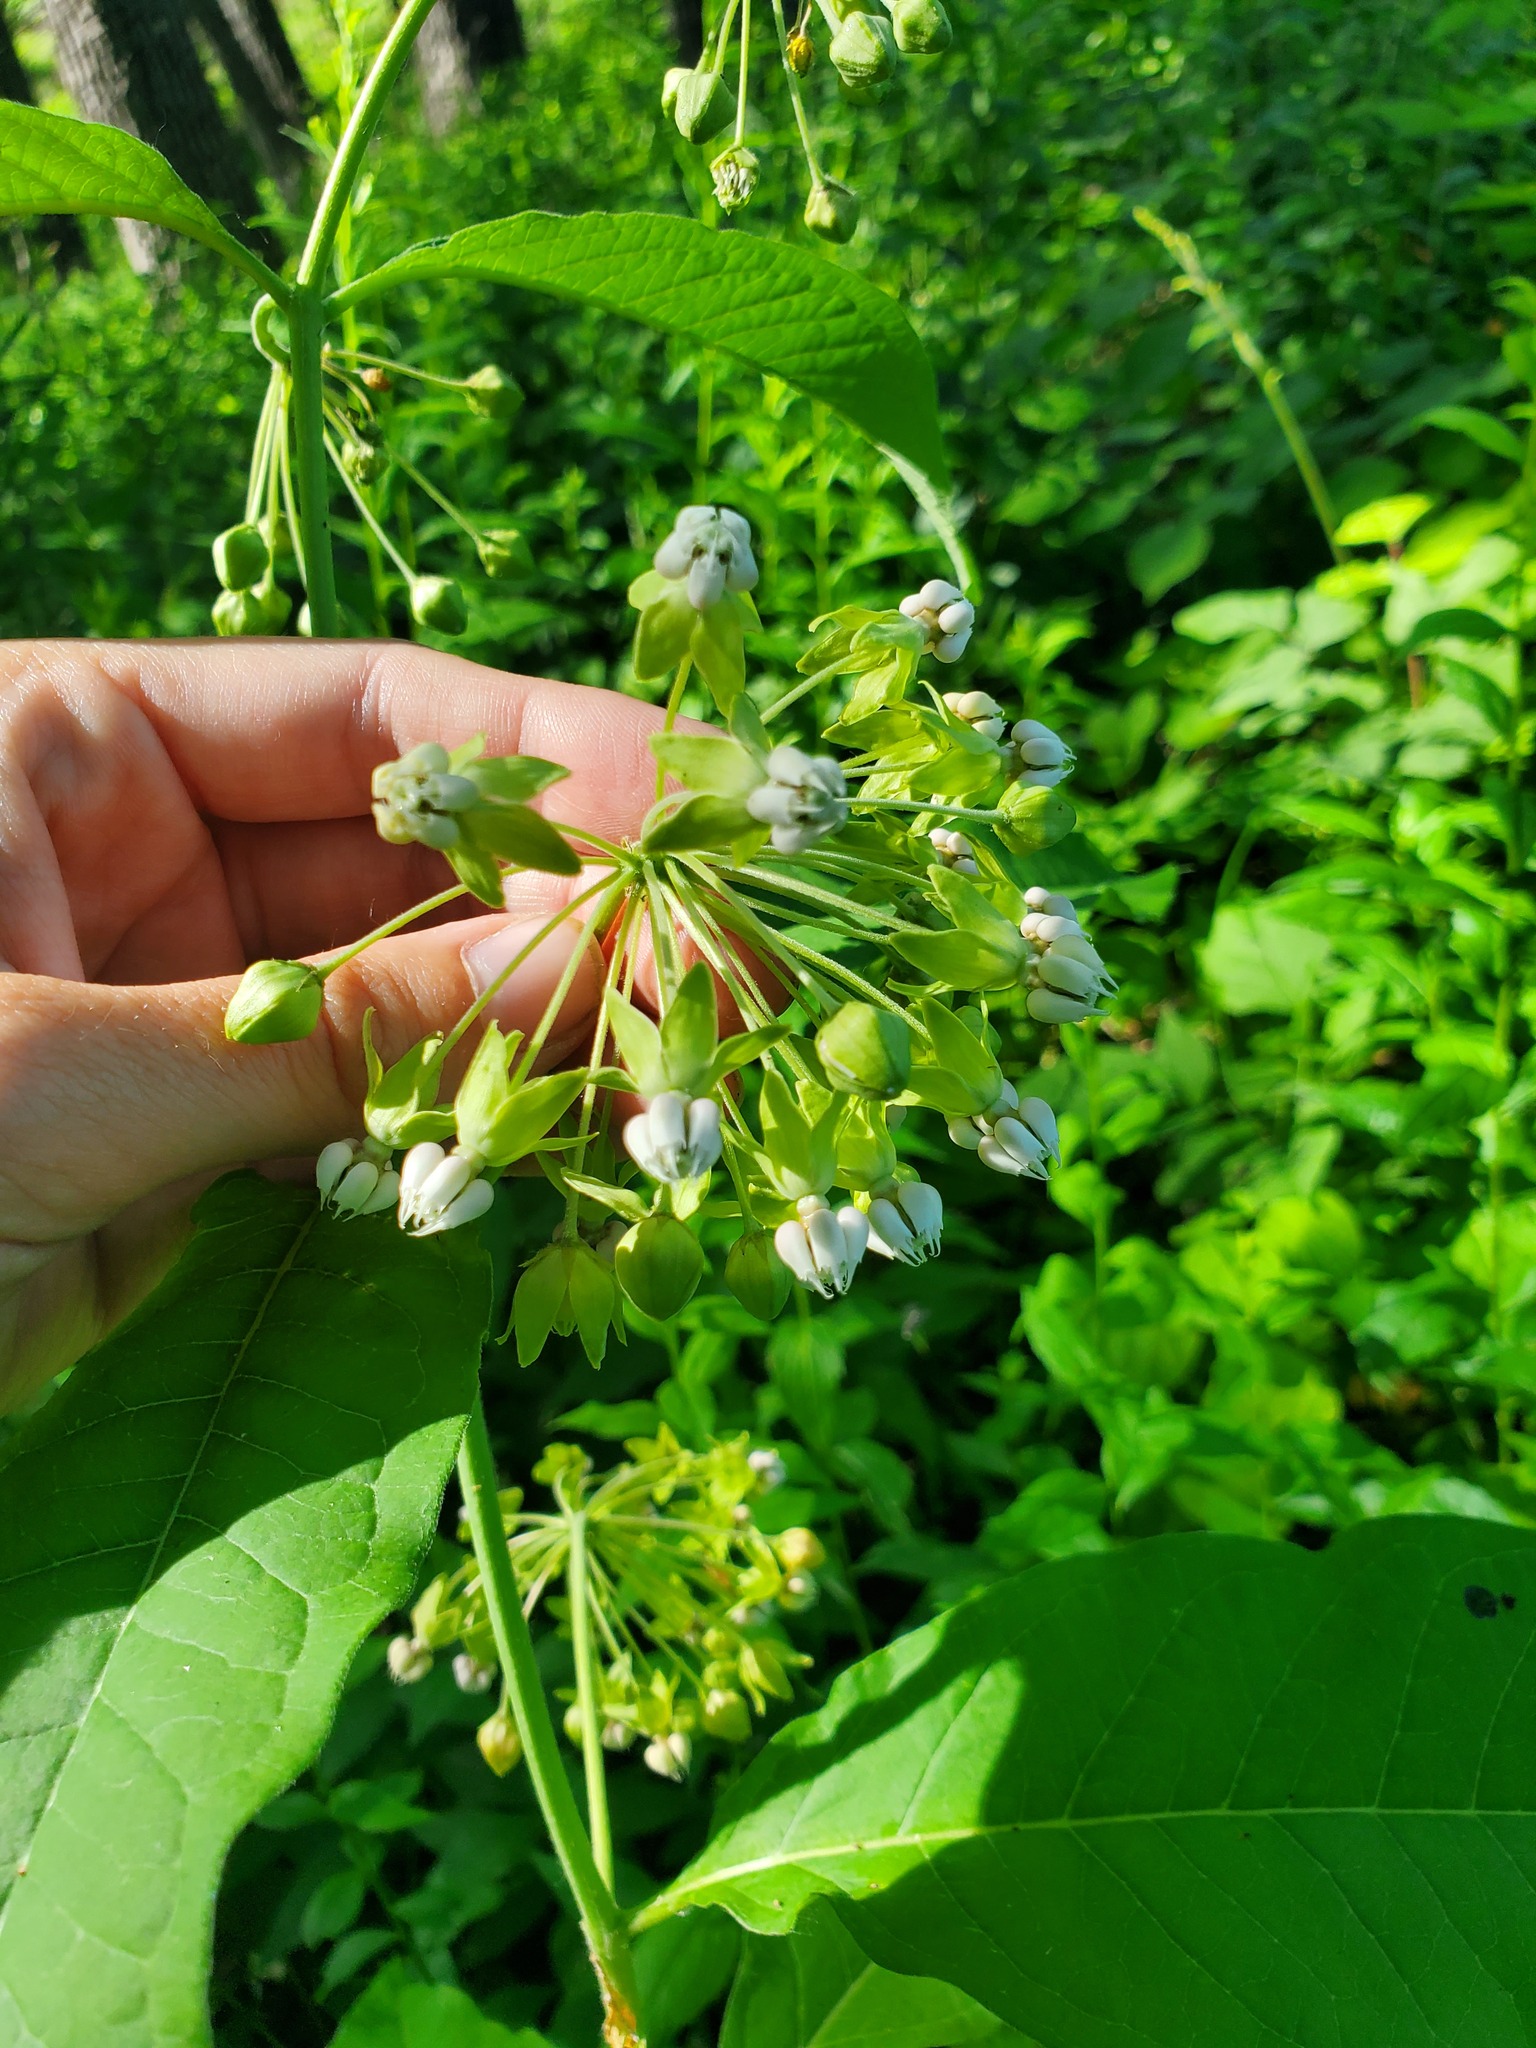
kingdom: Plantae
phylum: Tracheophyta
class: Magnoliopsida
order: Gentianales
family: Apocynaceae
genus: Asclepias
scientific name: Asclepias exaltata
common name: Poke milkweed
